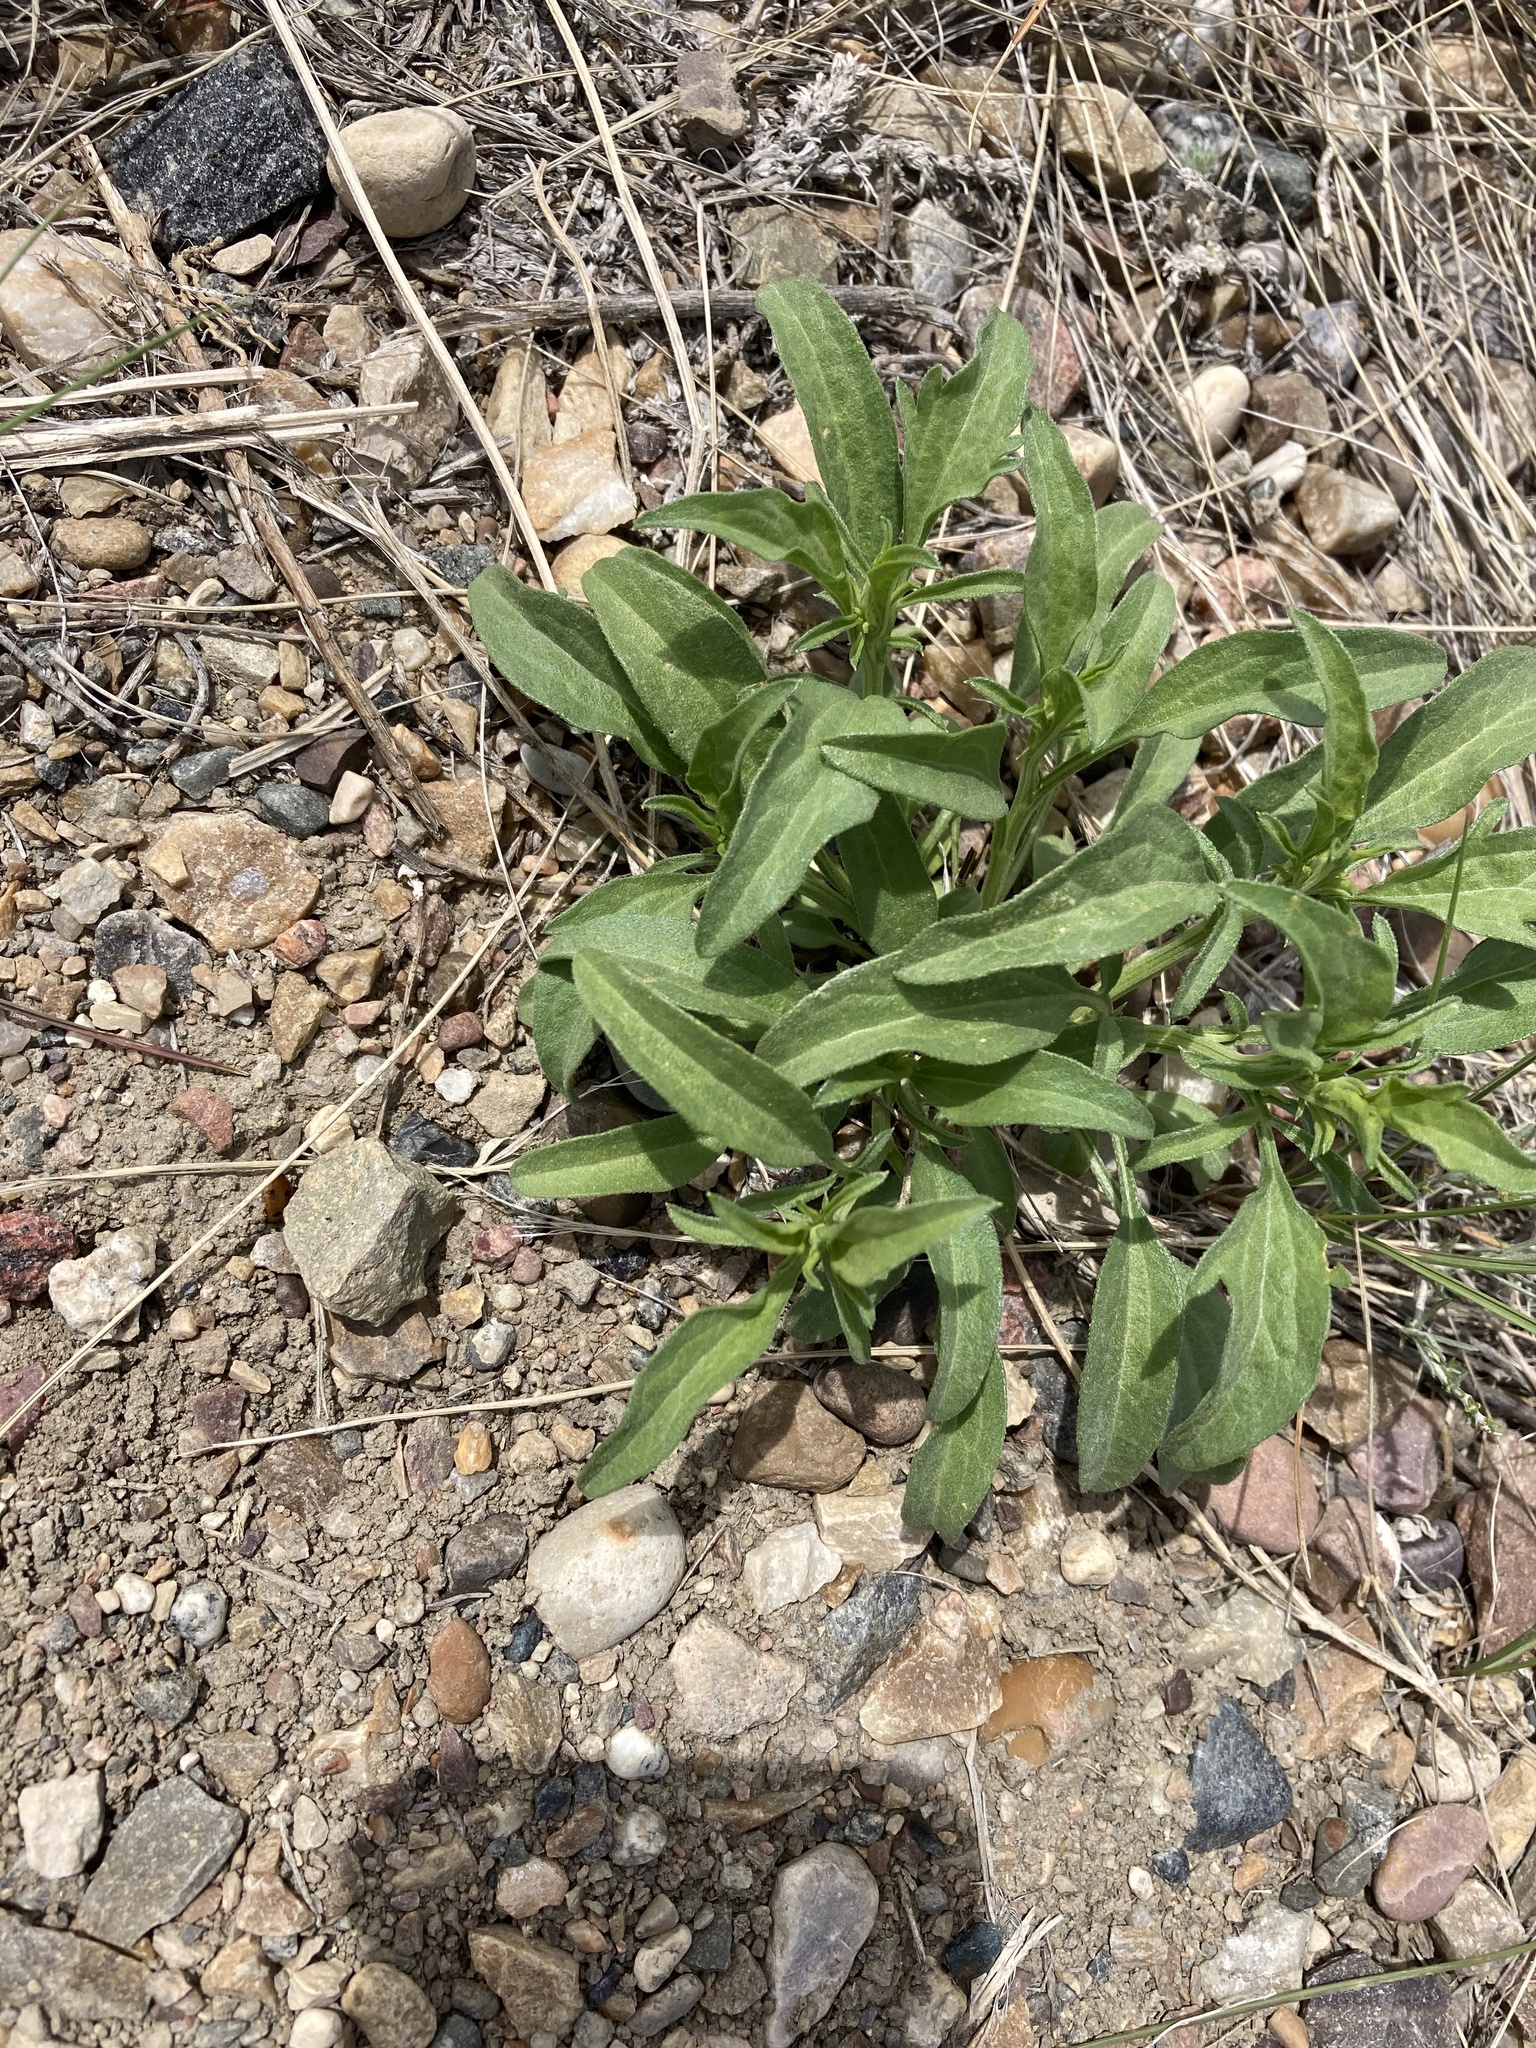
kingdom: Plantae
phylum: Tracheophyta
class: Magnoliopsida
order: Asterales
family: Asteraceae
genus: Ratibida
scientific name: Ratibida columnifera
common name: Prairie coneflower
